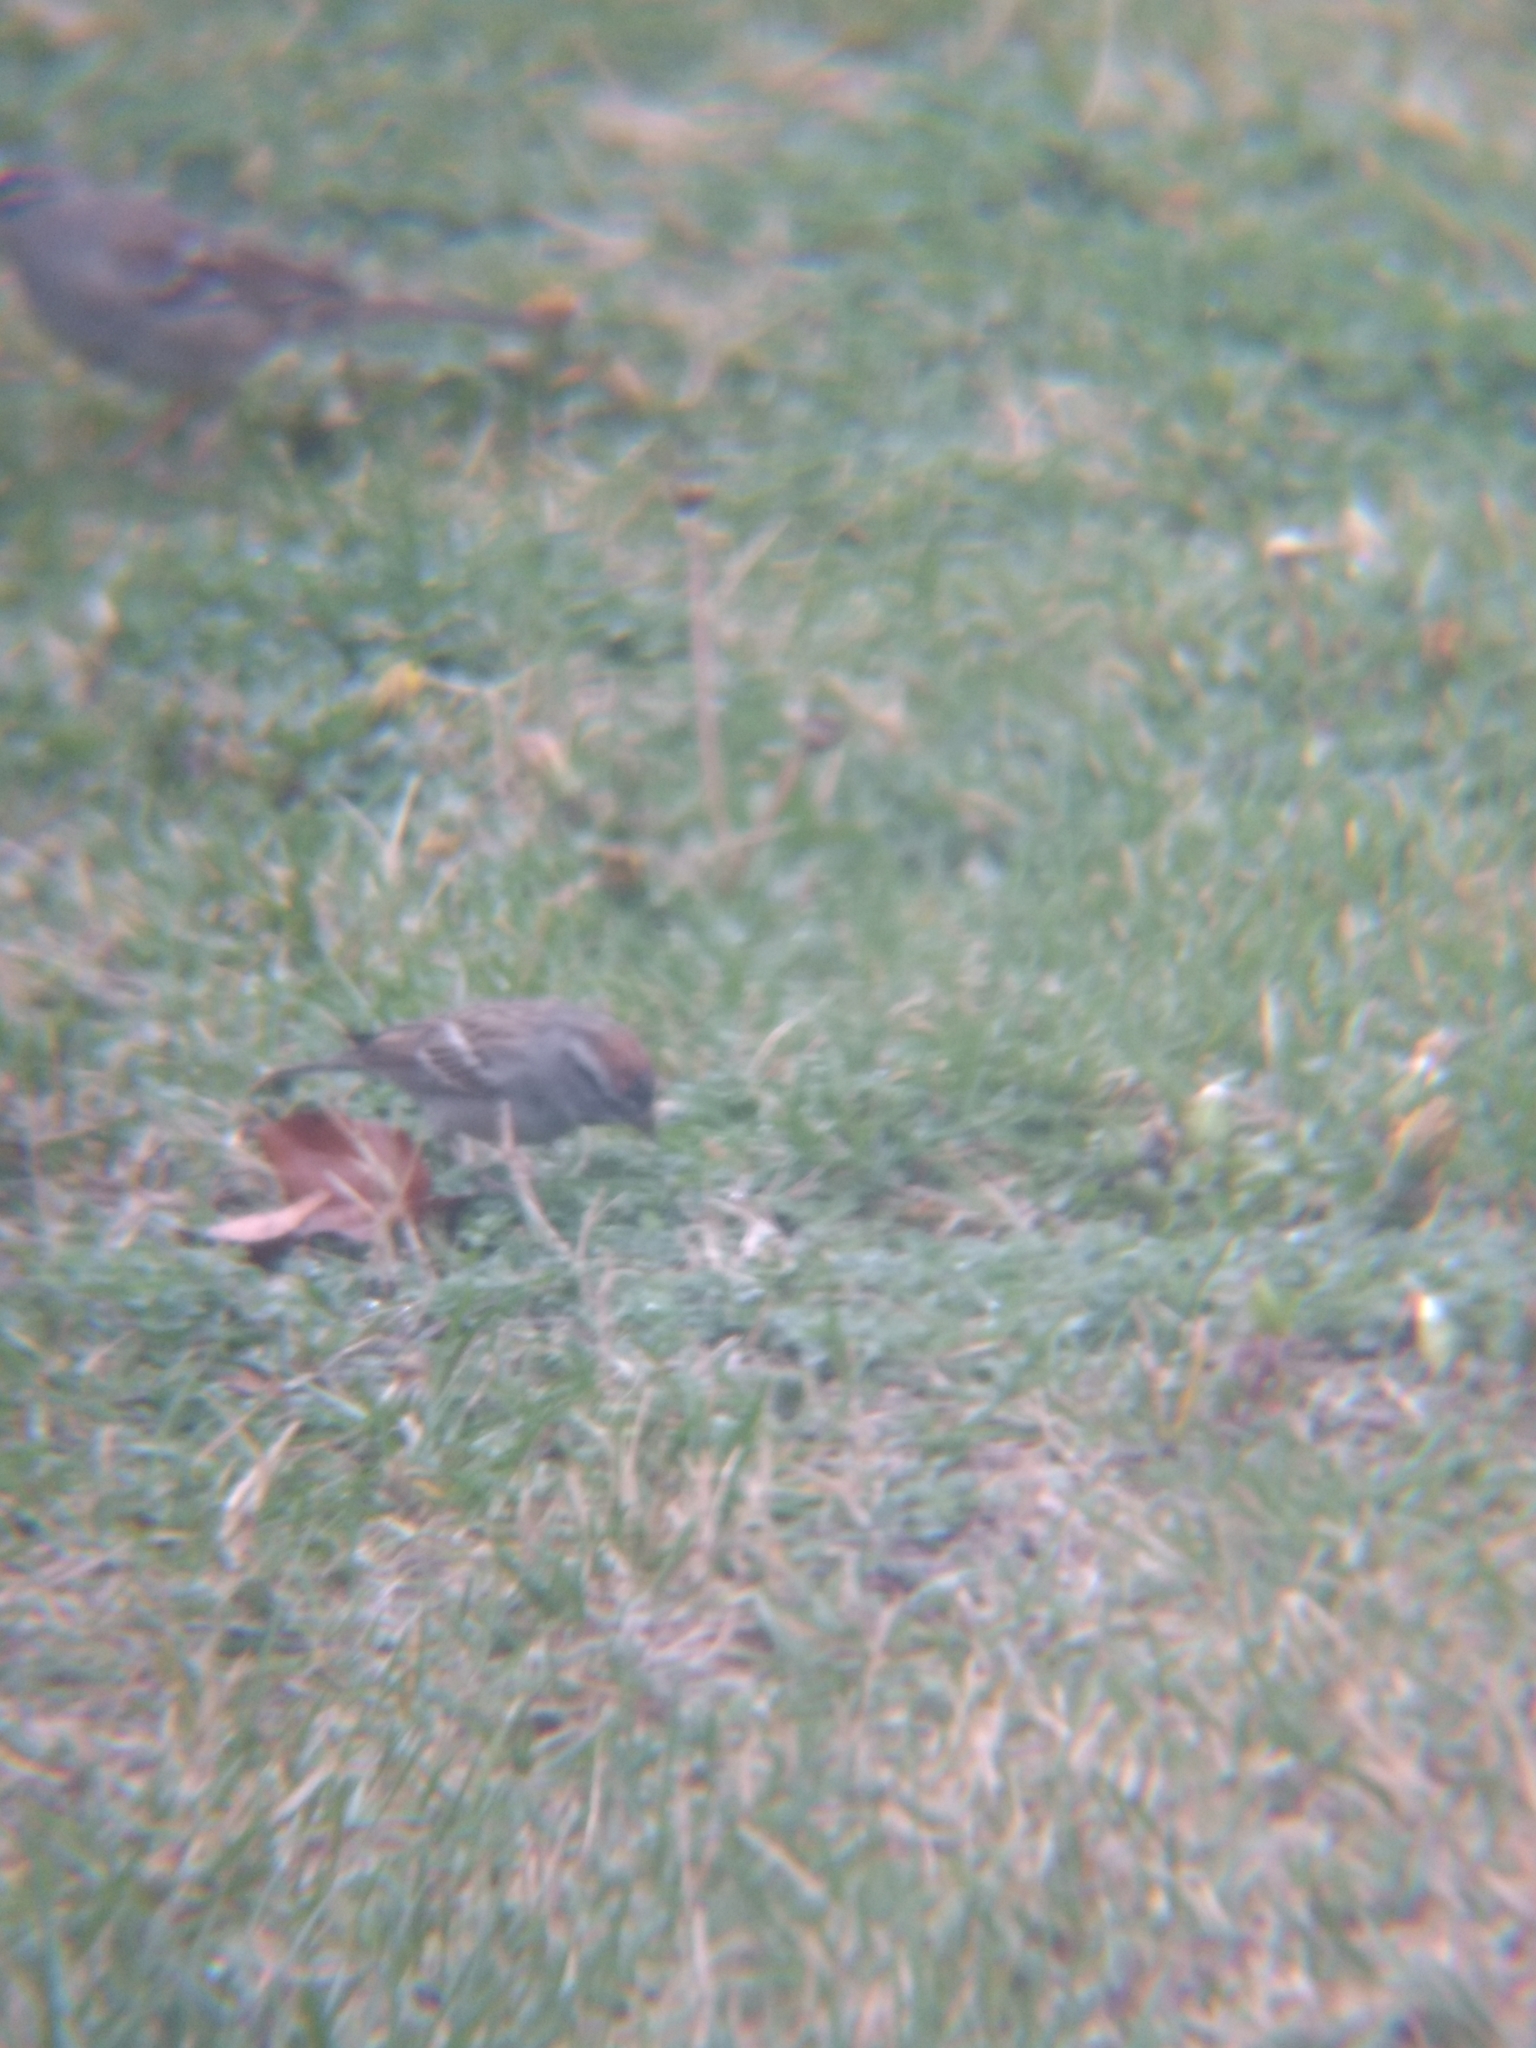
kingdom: Animalia
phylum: Chordata
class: Aves
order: Passeriformes
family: Passerellidae
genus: Spizella
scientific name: Spizella passerina
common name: Chipping sparrow
